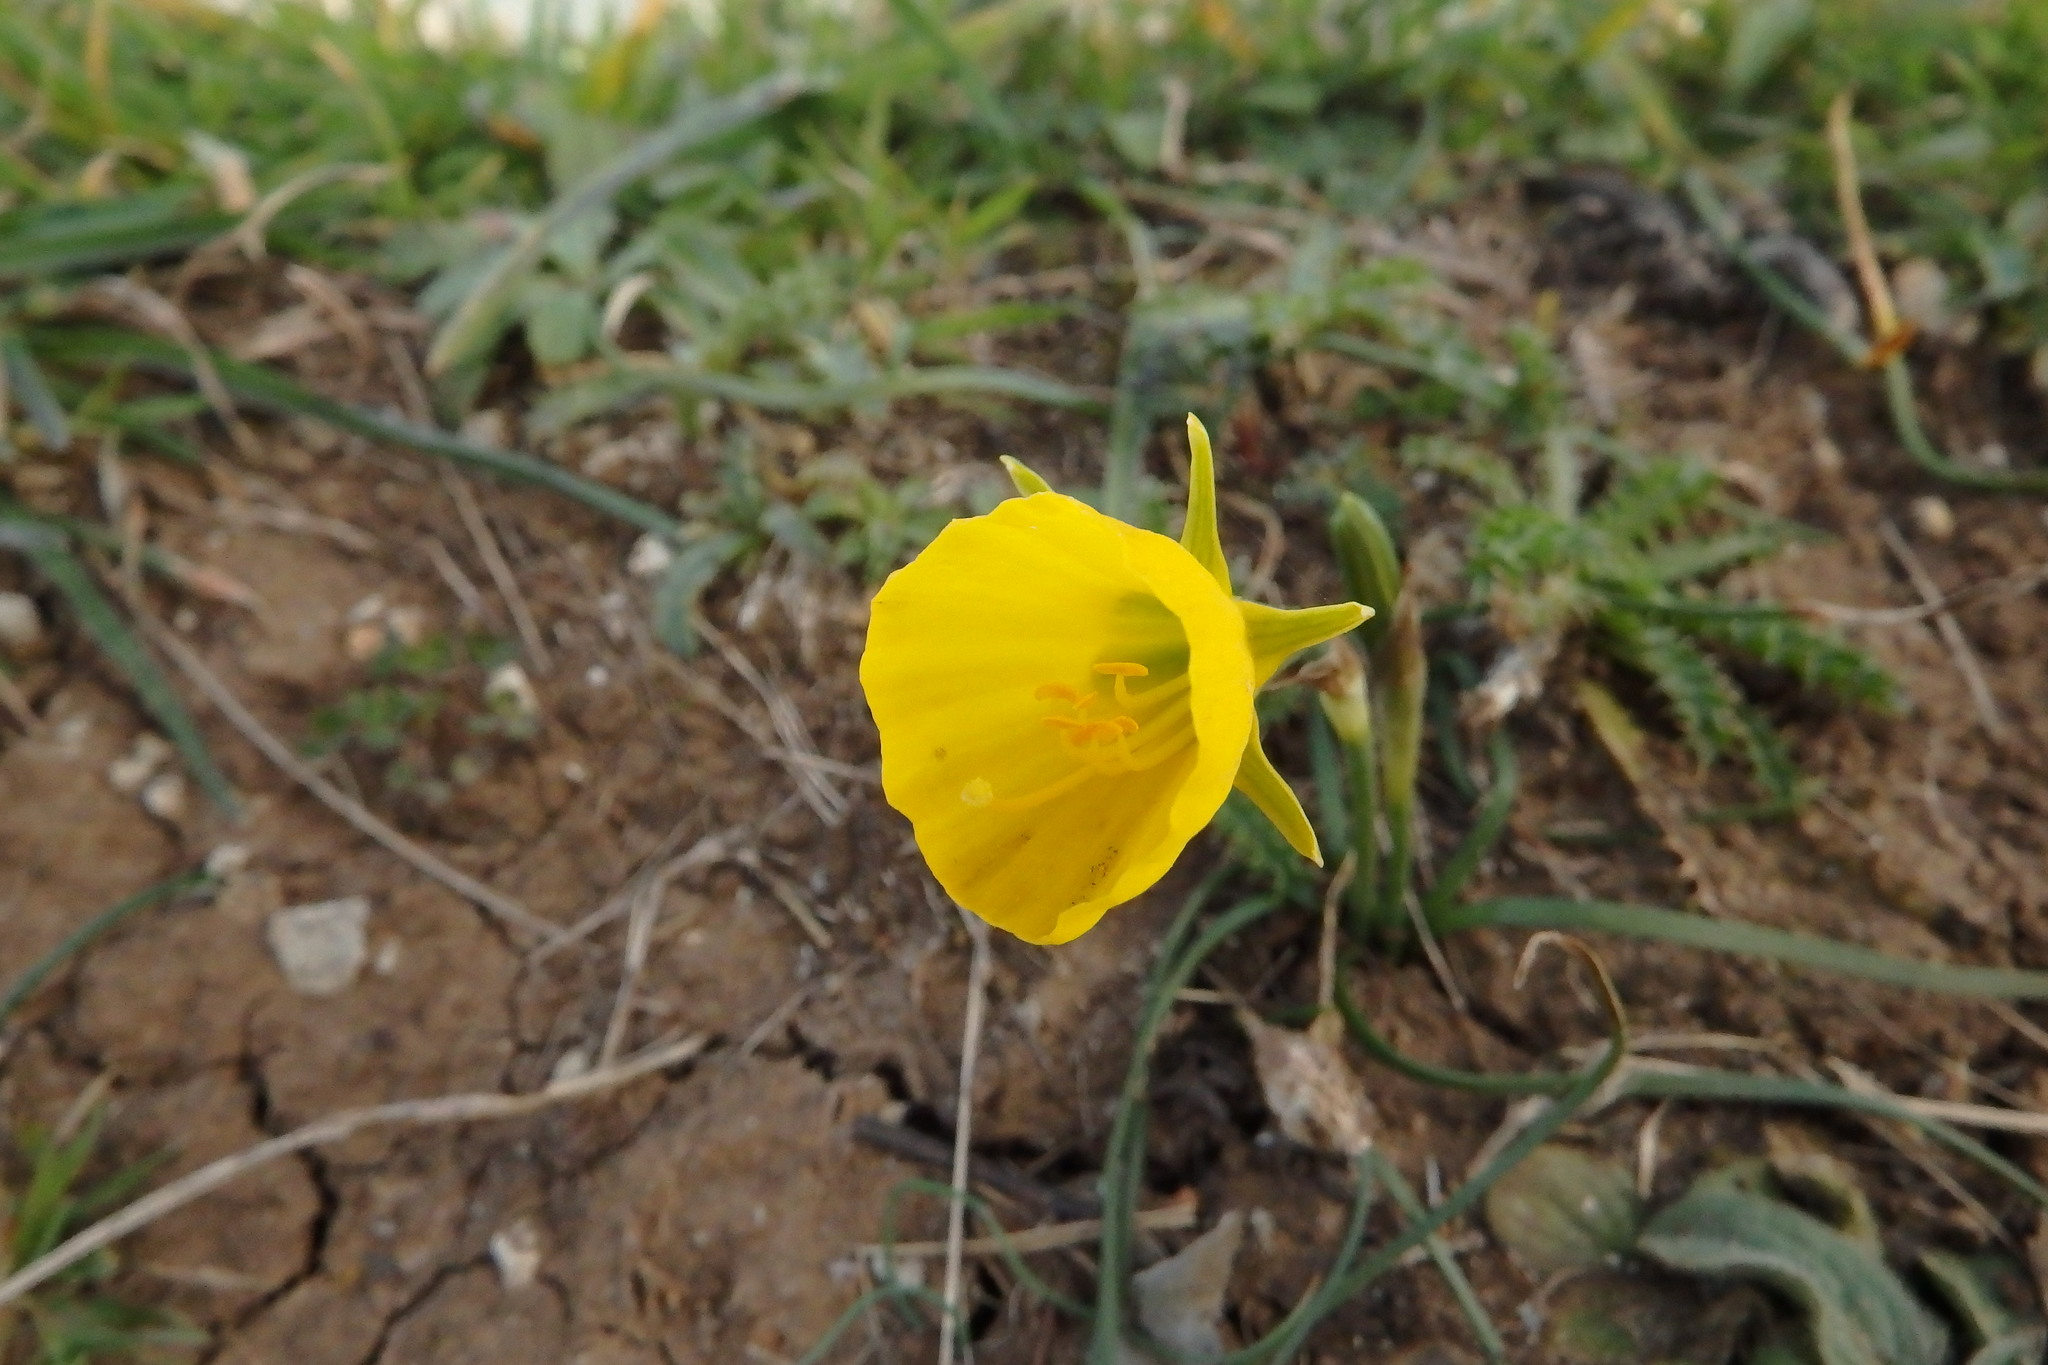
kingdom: Plantae
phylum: Tracheophyta
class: Liliopsida
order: Asparagales
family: Amaryllidaceae
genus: Narcissus
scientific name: Narcissus bulbocodium
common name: Hoop-petticoat daffodil
